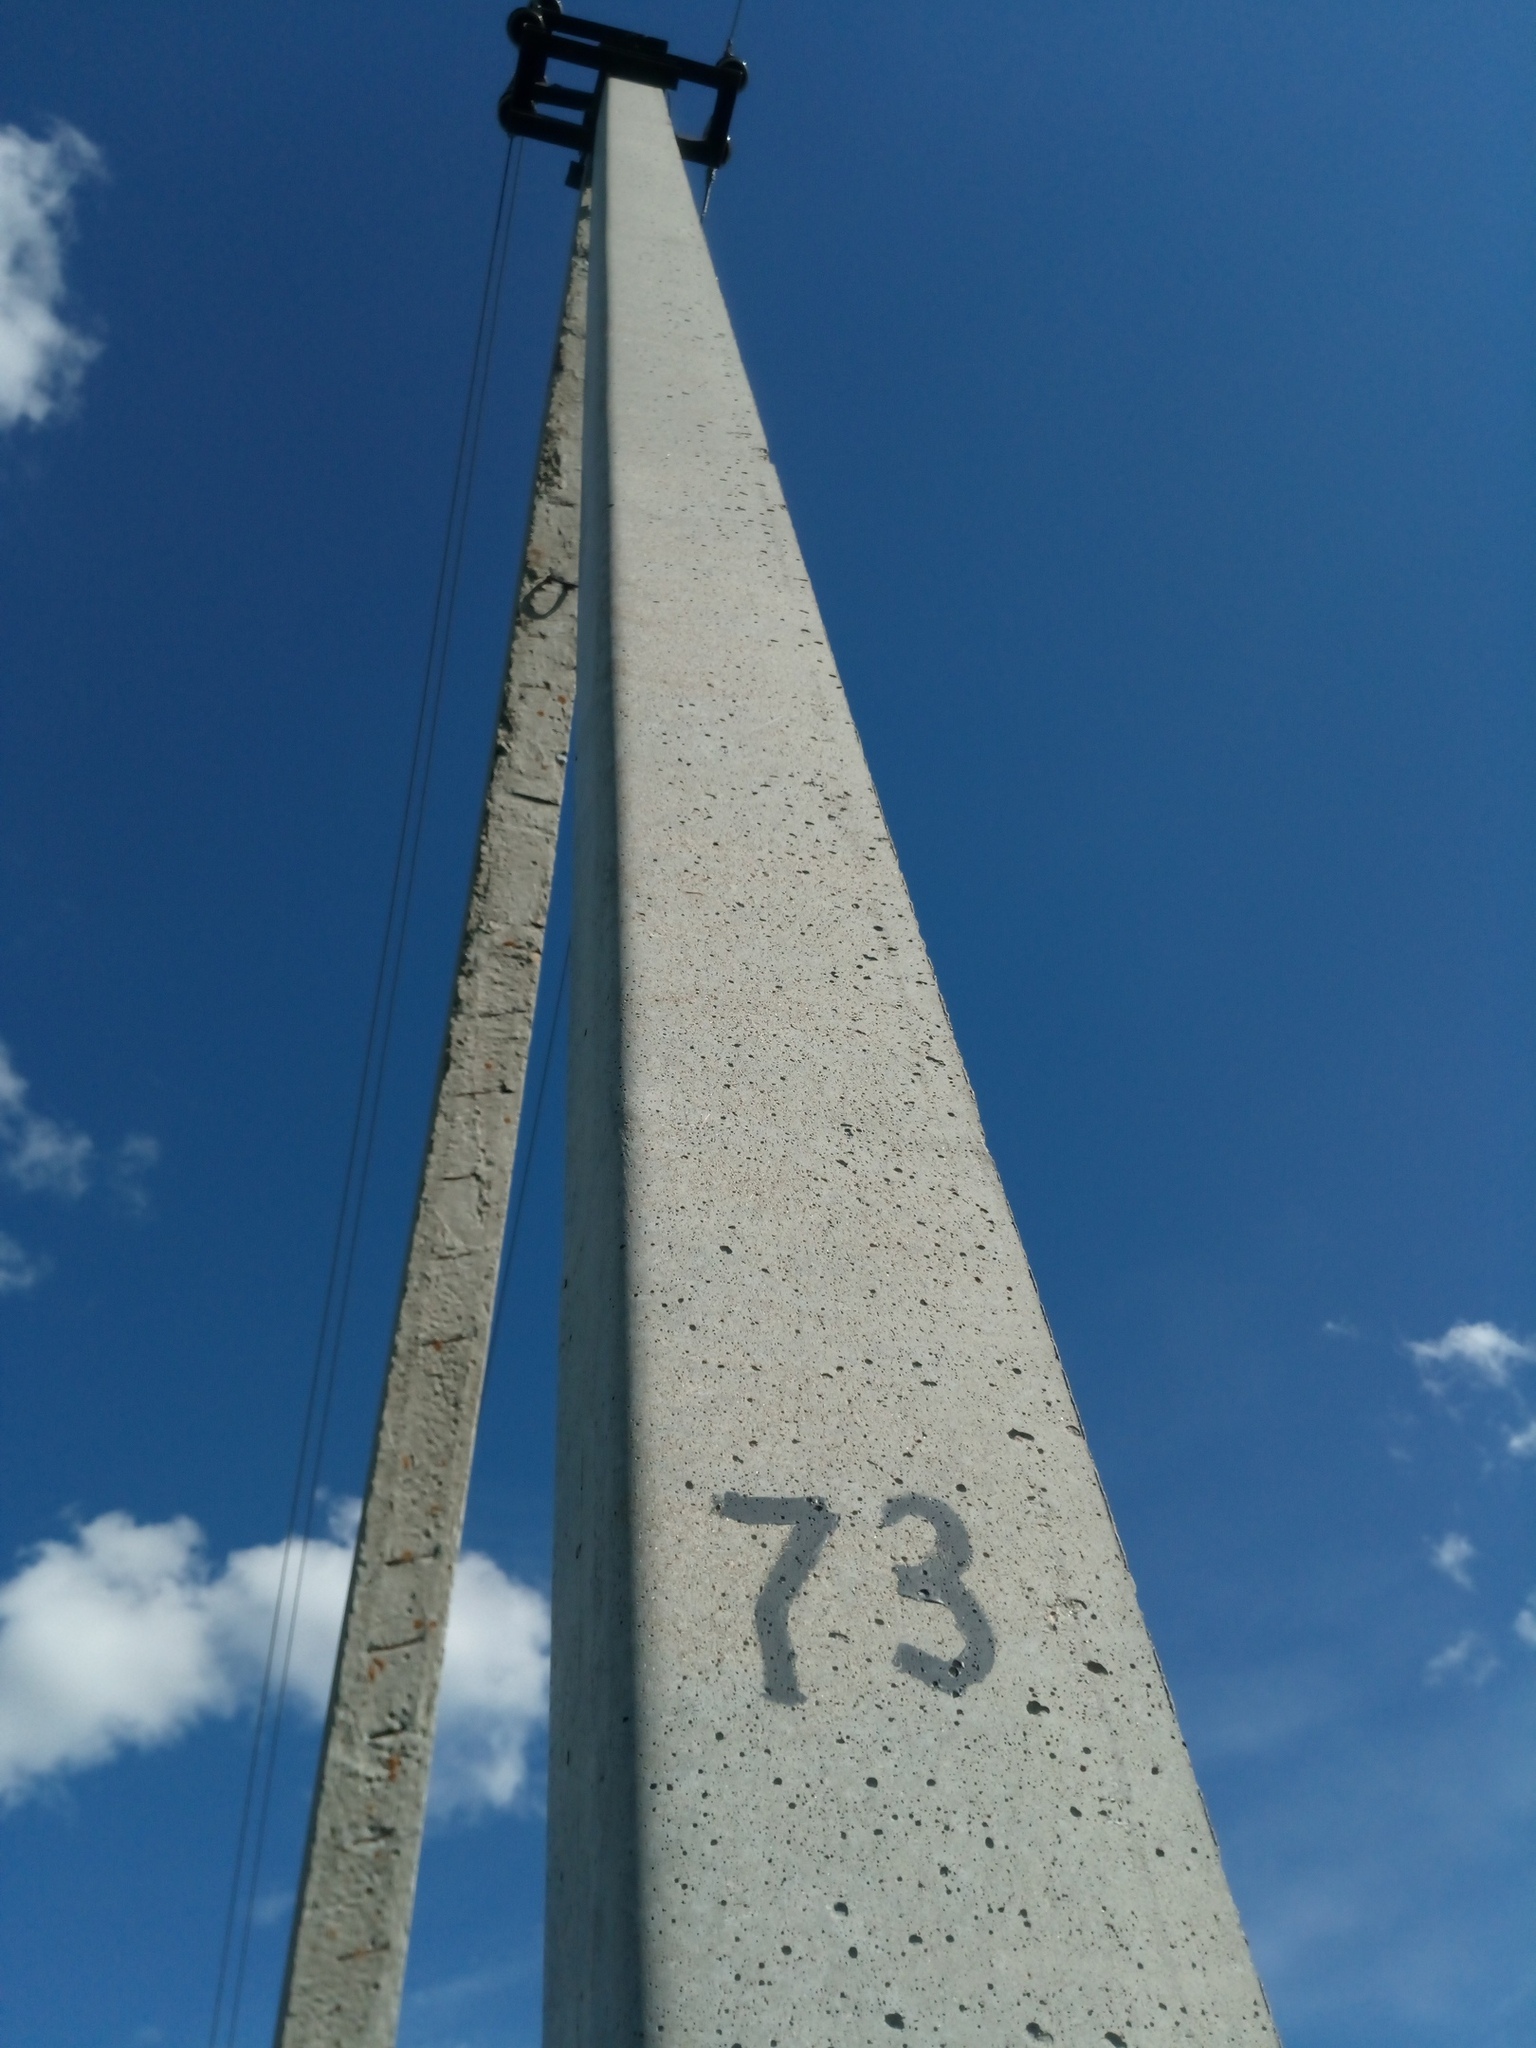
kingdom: Animalia
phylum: Chordata
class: Aves
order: Passeriformes
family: Corvidae
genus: Corvus
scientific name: Corvus cornix
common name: Hooded crow
